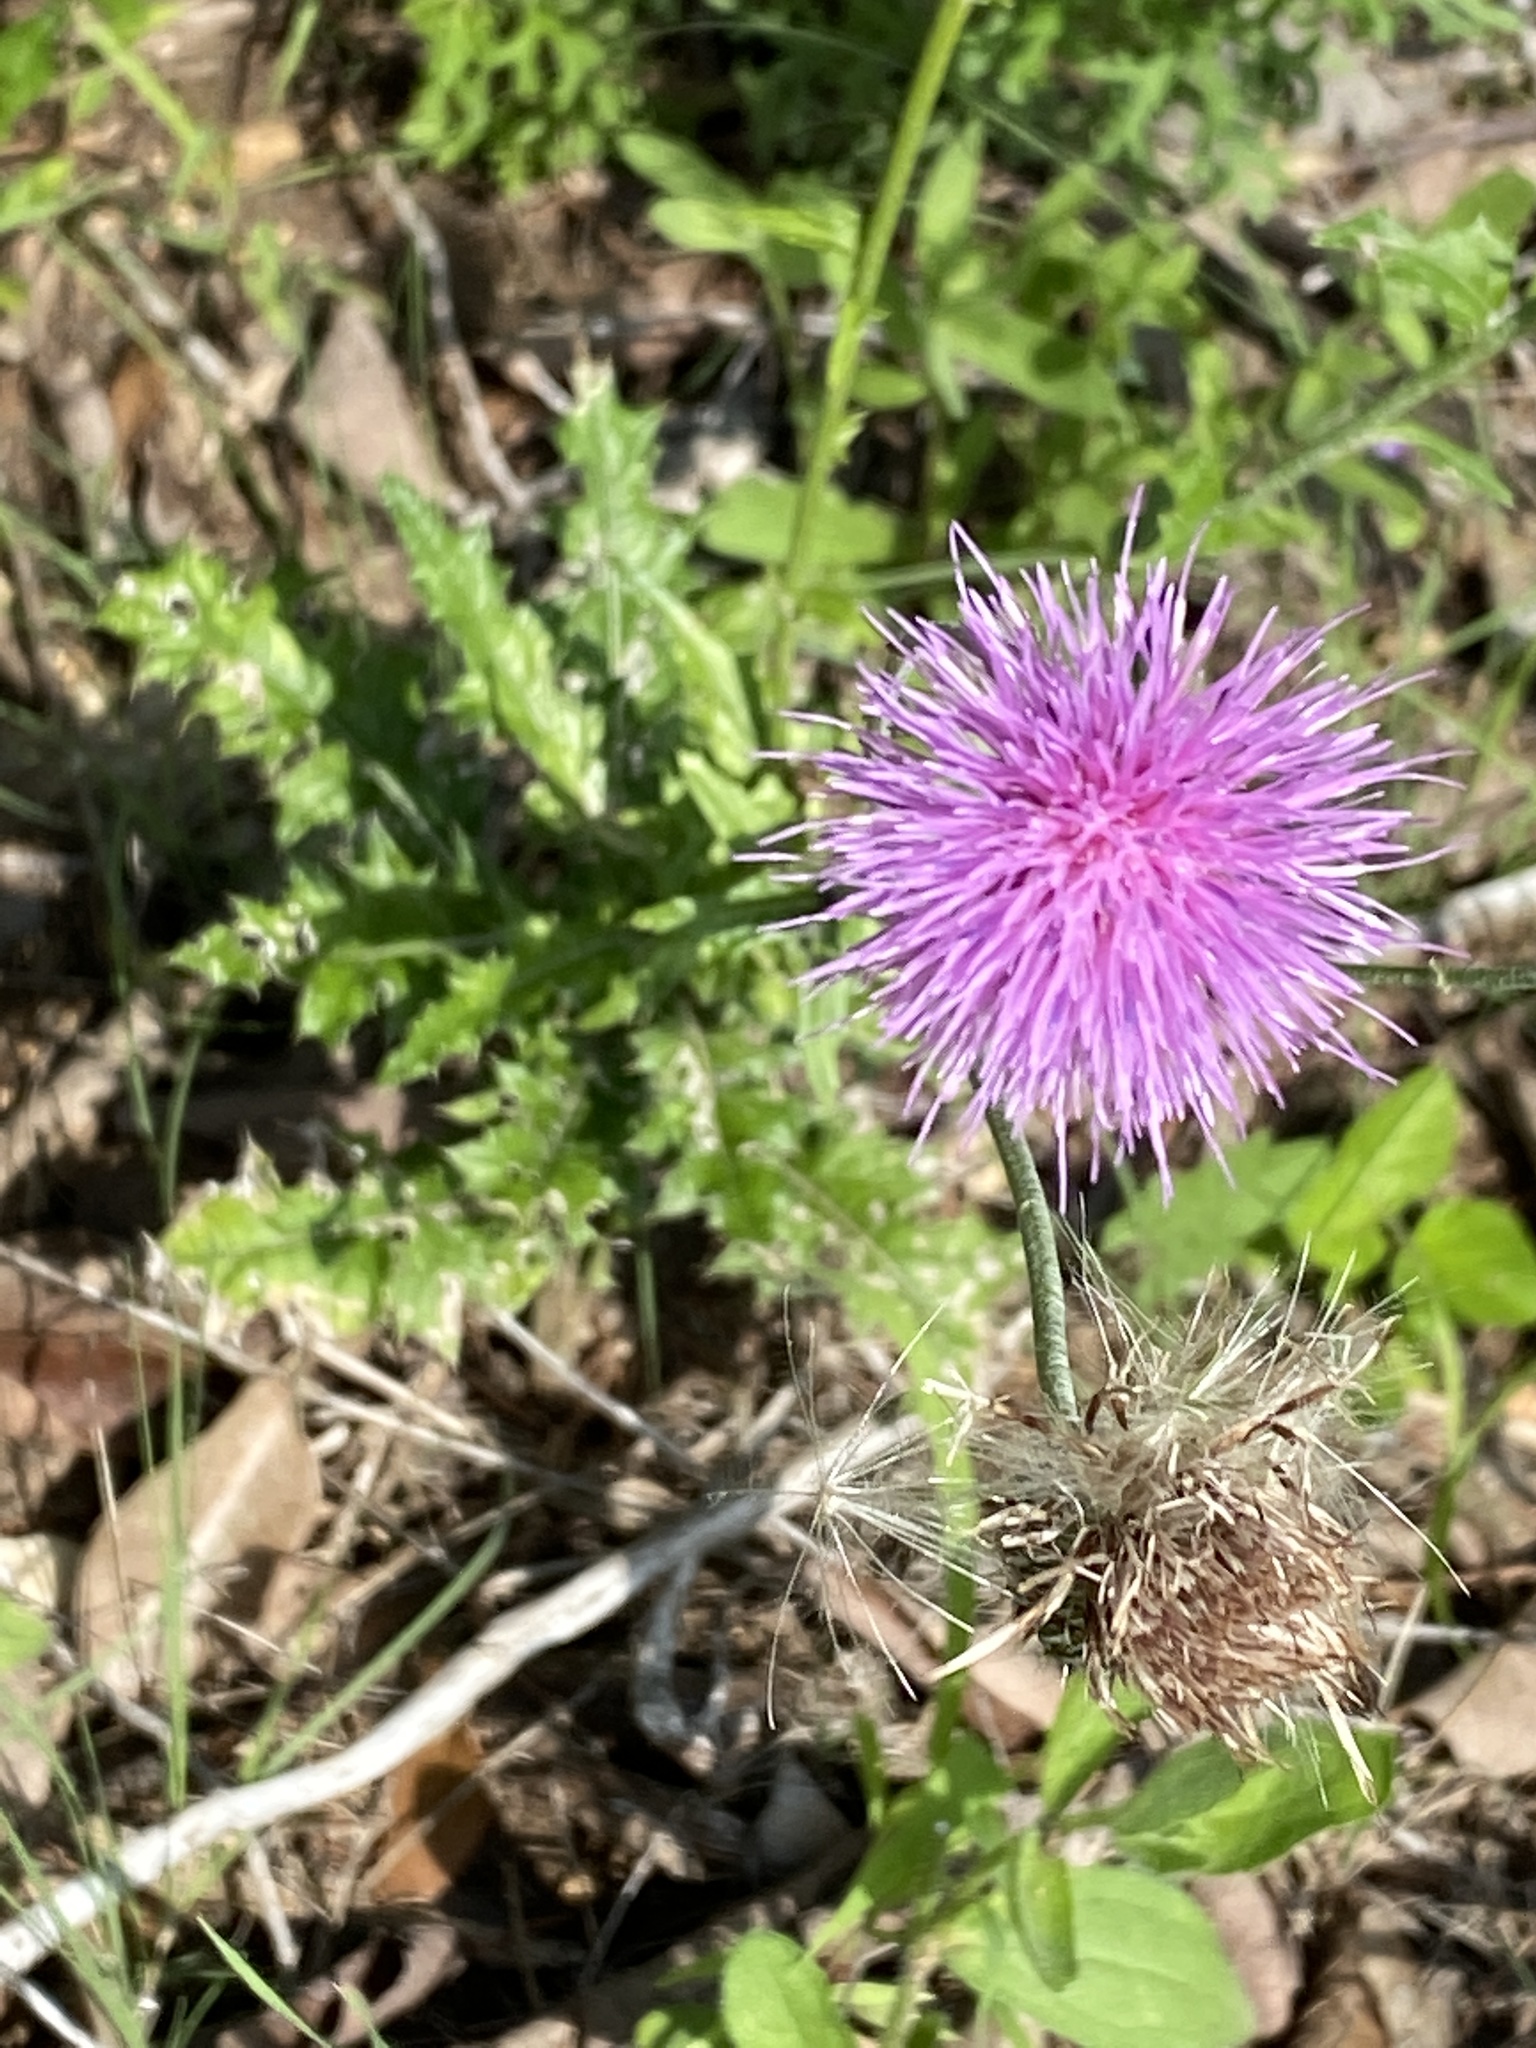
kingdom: Plantae
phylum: Tracheophyta
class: Magnoliopsida
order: Asterales
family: Asteraceae
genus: Cirsium
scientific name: Cirsium texanum
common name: Texas purple thistle
